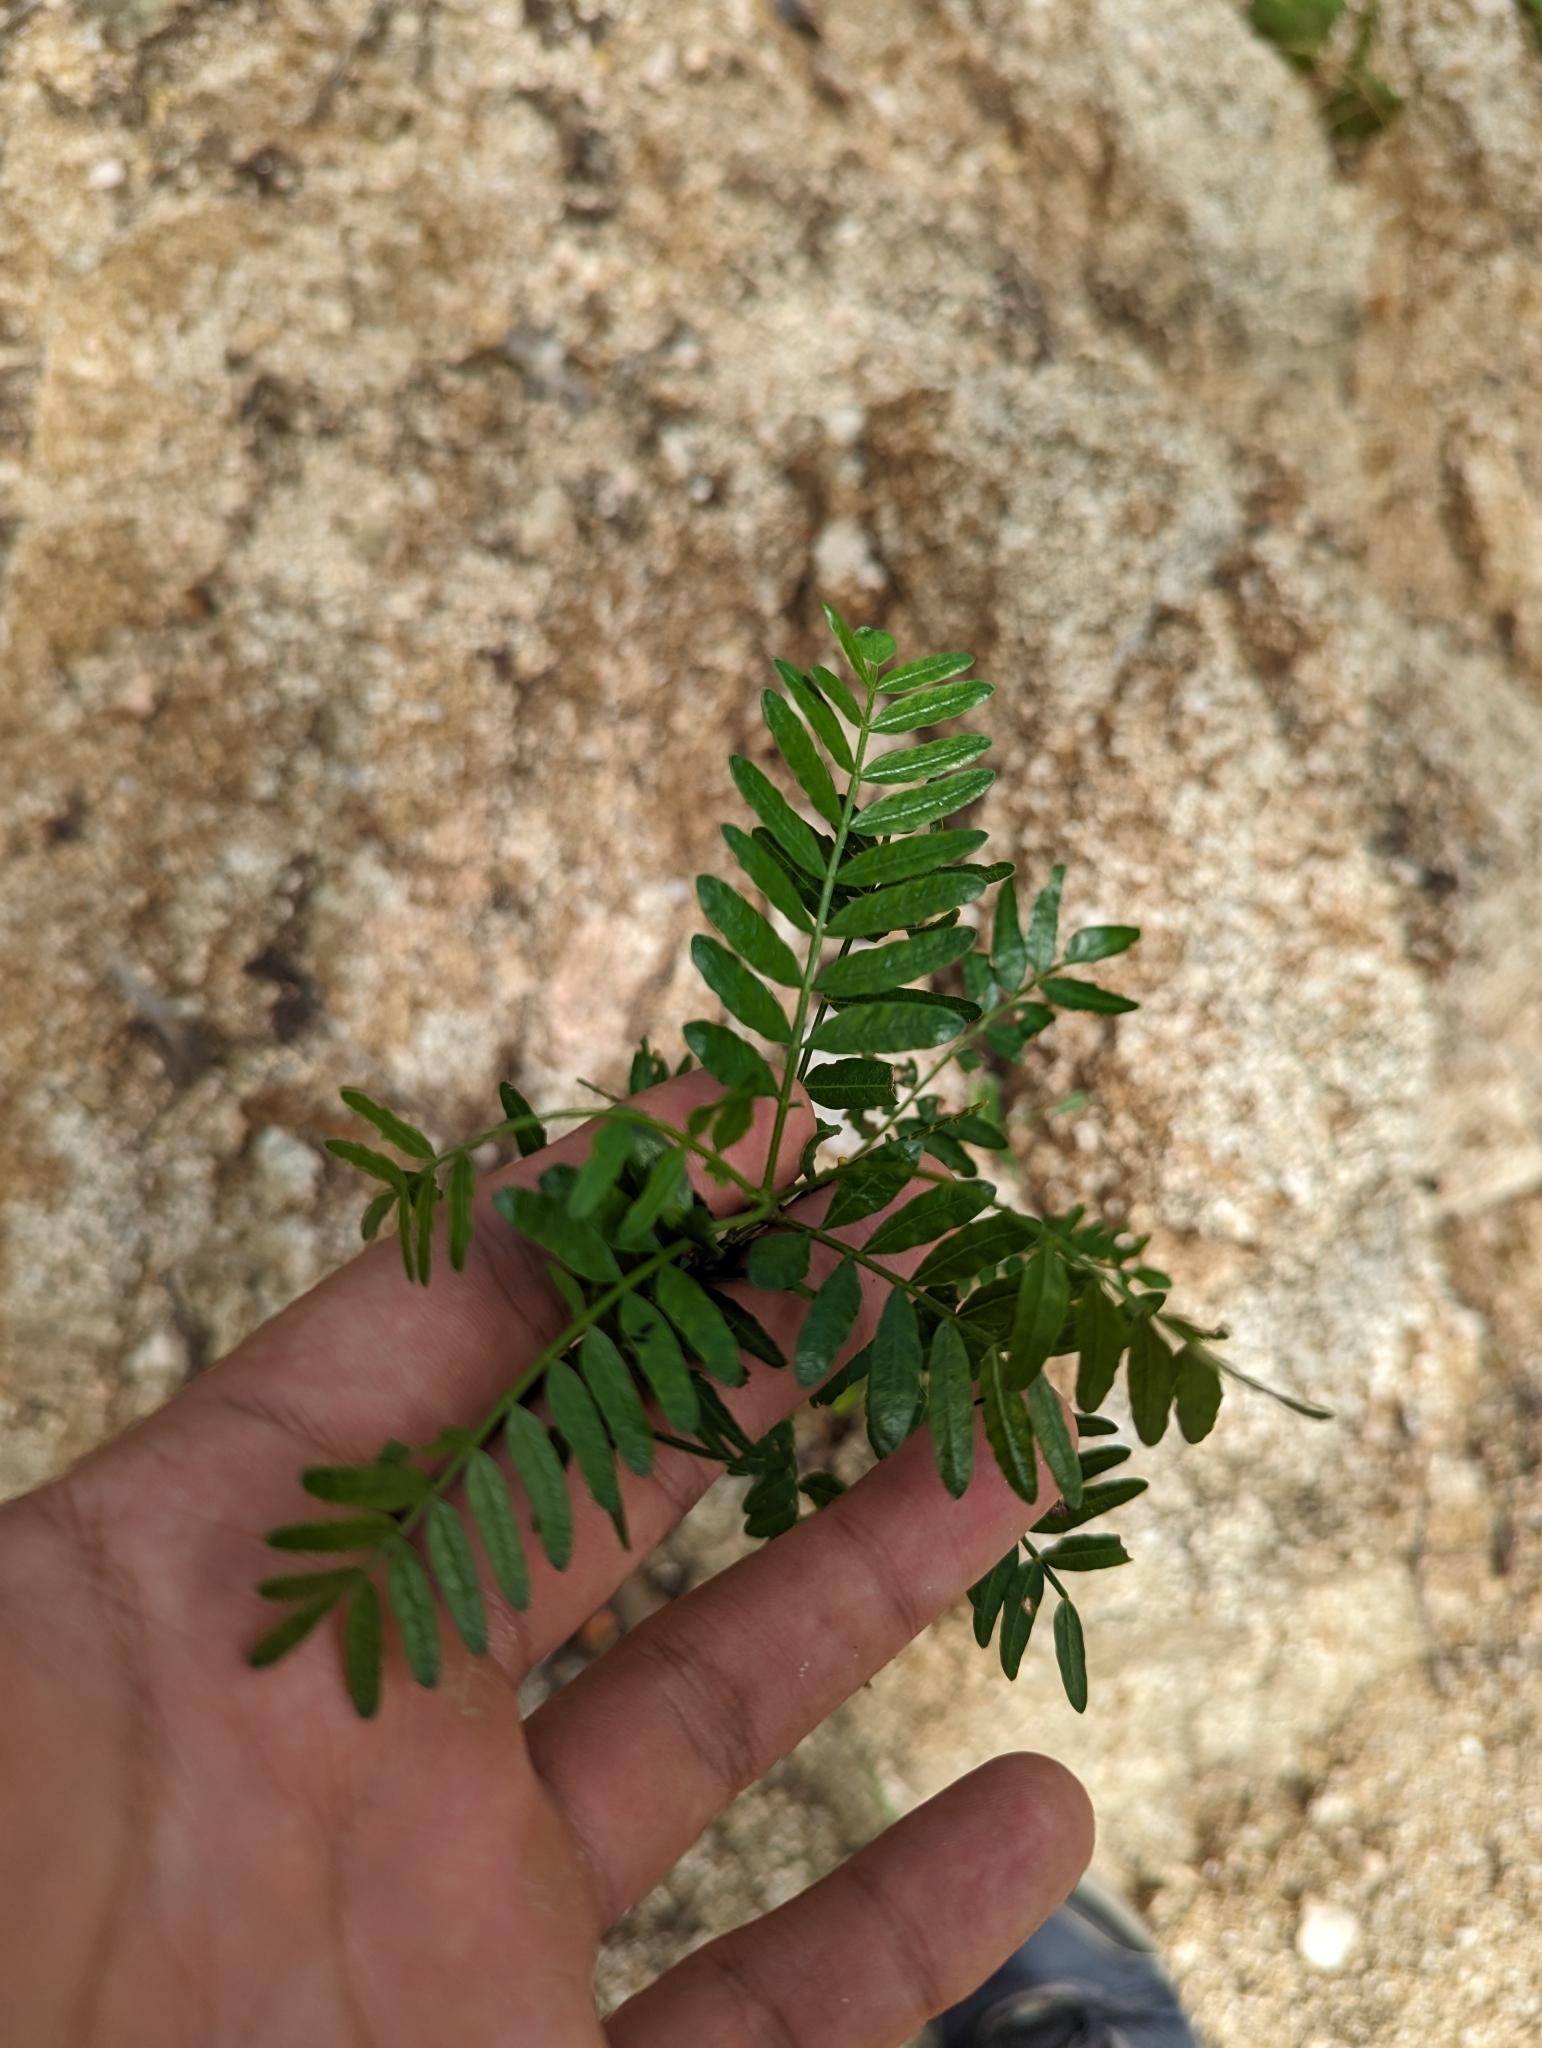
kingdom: Plantae
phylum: Tracheophyta
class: Magnoliopsida
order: Sapindales
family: Burseraceae
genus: Bursera
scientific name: Bursera microphylla
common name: Elephant tree
